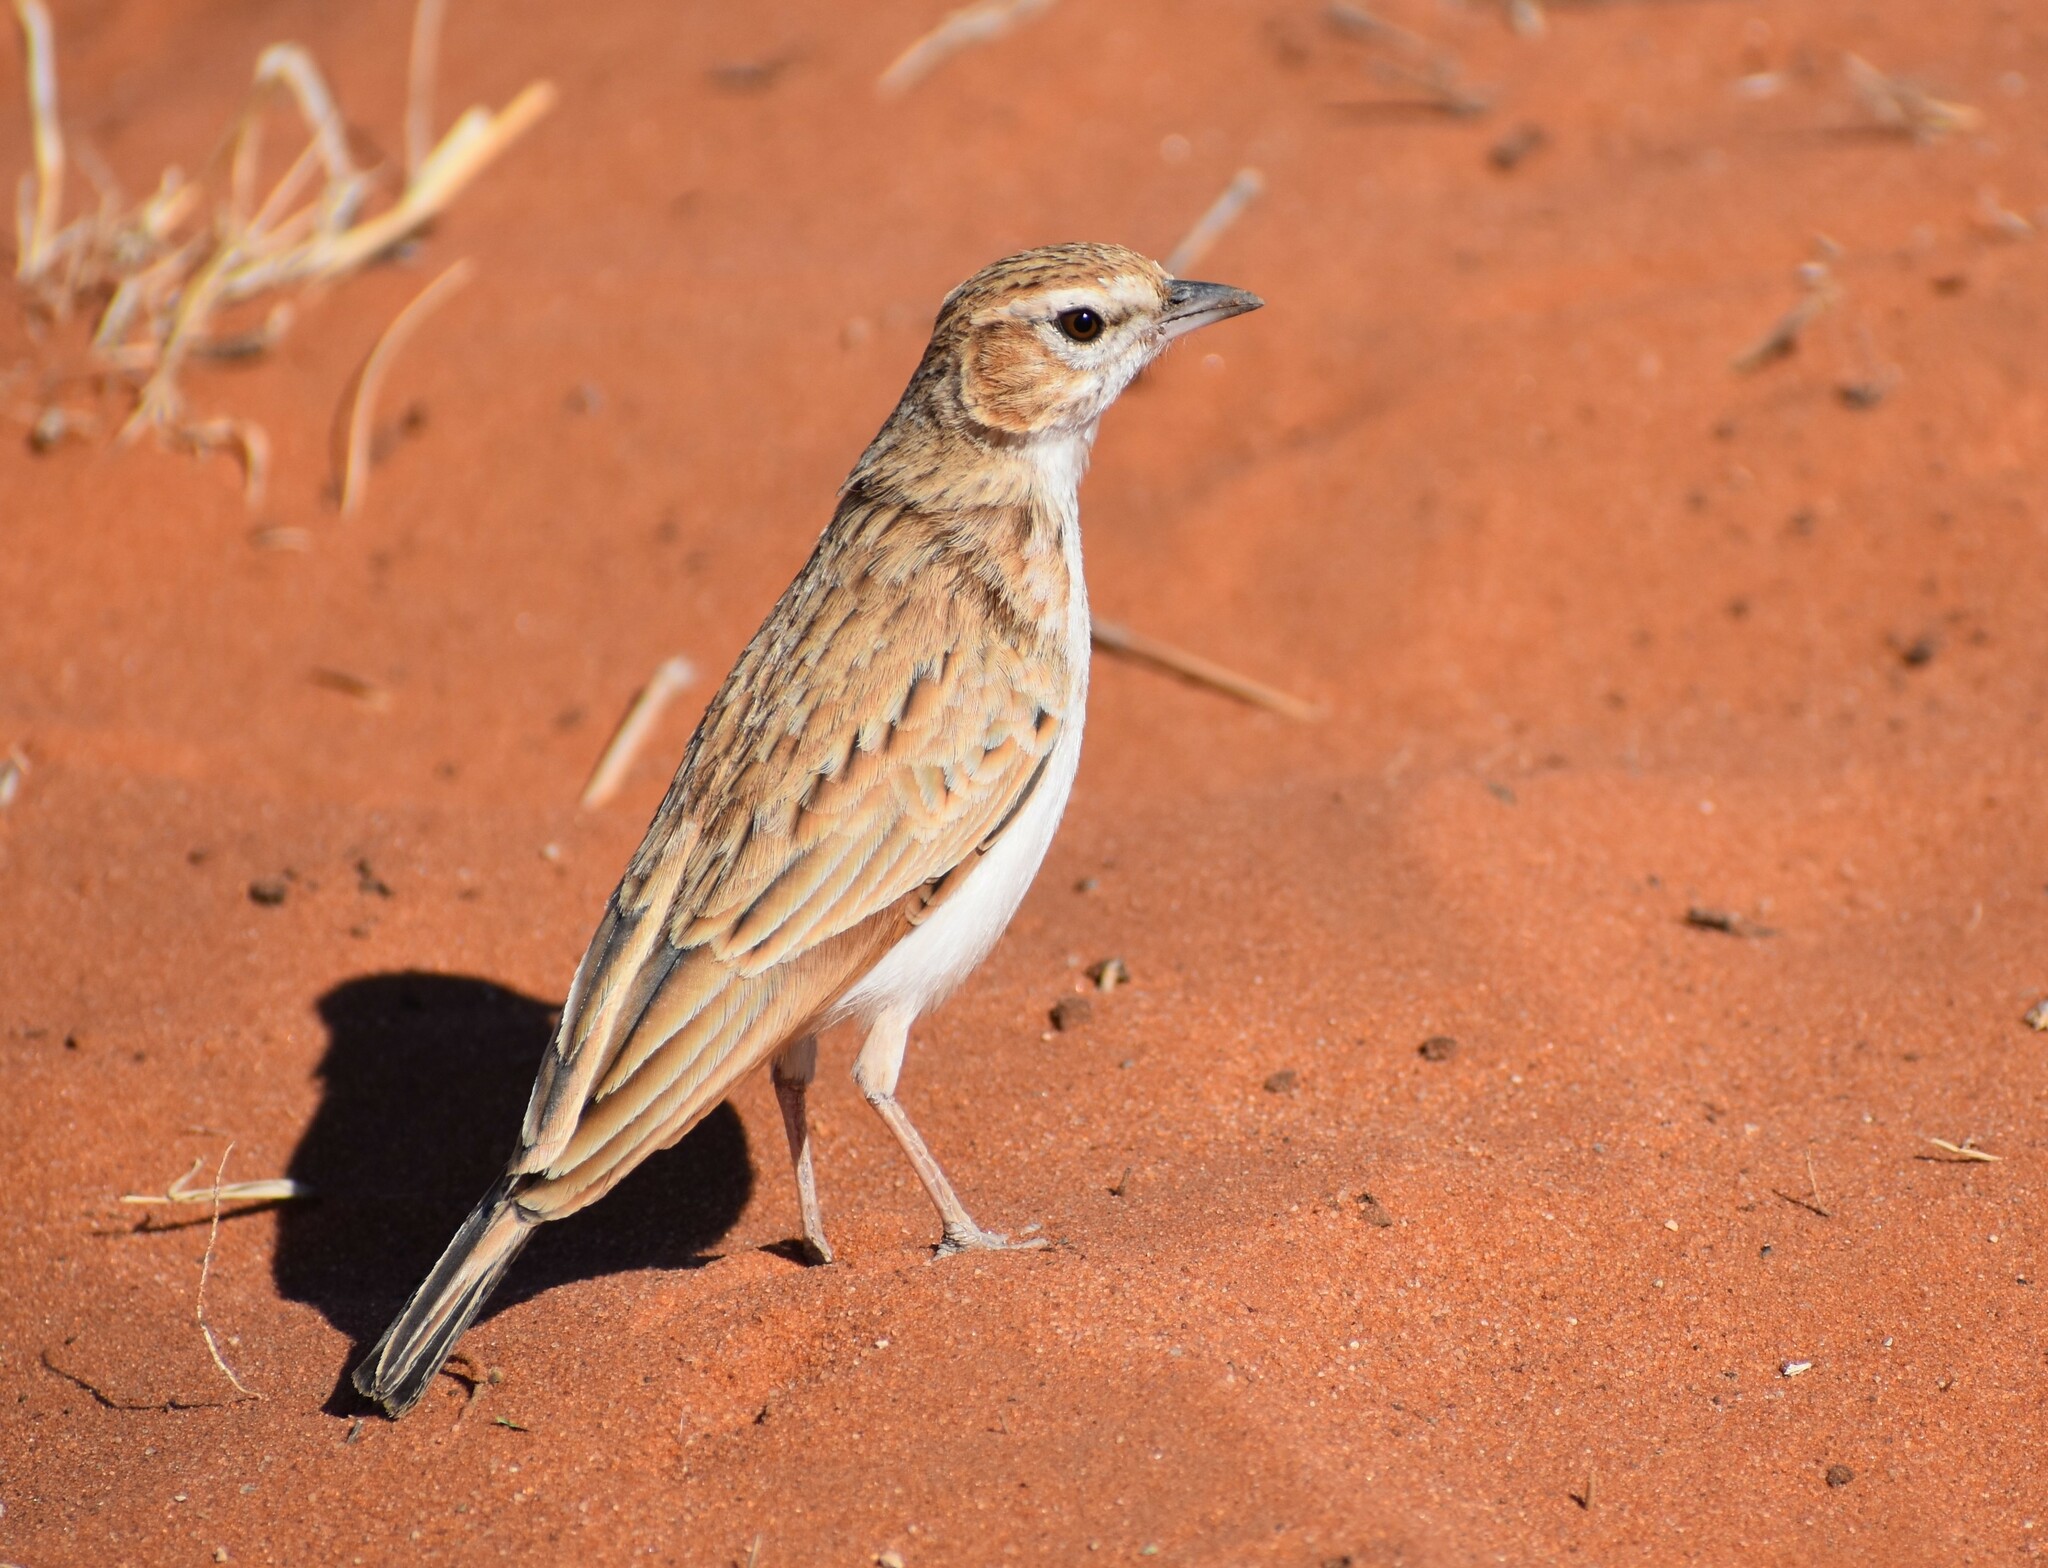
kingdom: Animalia
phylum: Chordata
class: Aves
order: Passeriformes
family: Alaudidae
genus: Calendulauda
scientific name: Calendulauda africanoides
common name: Fawn-colored lark
